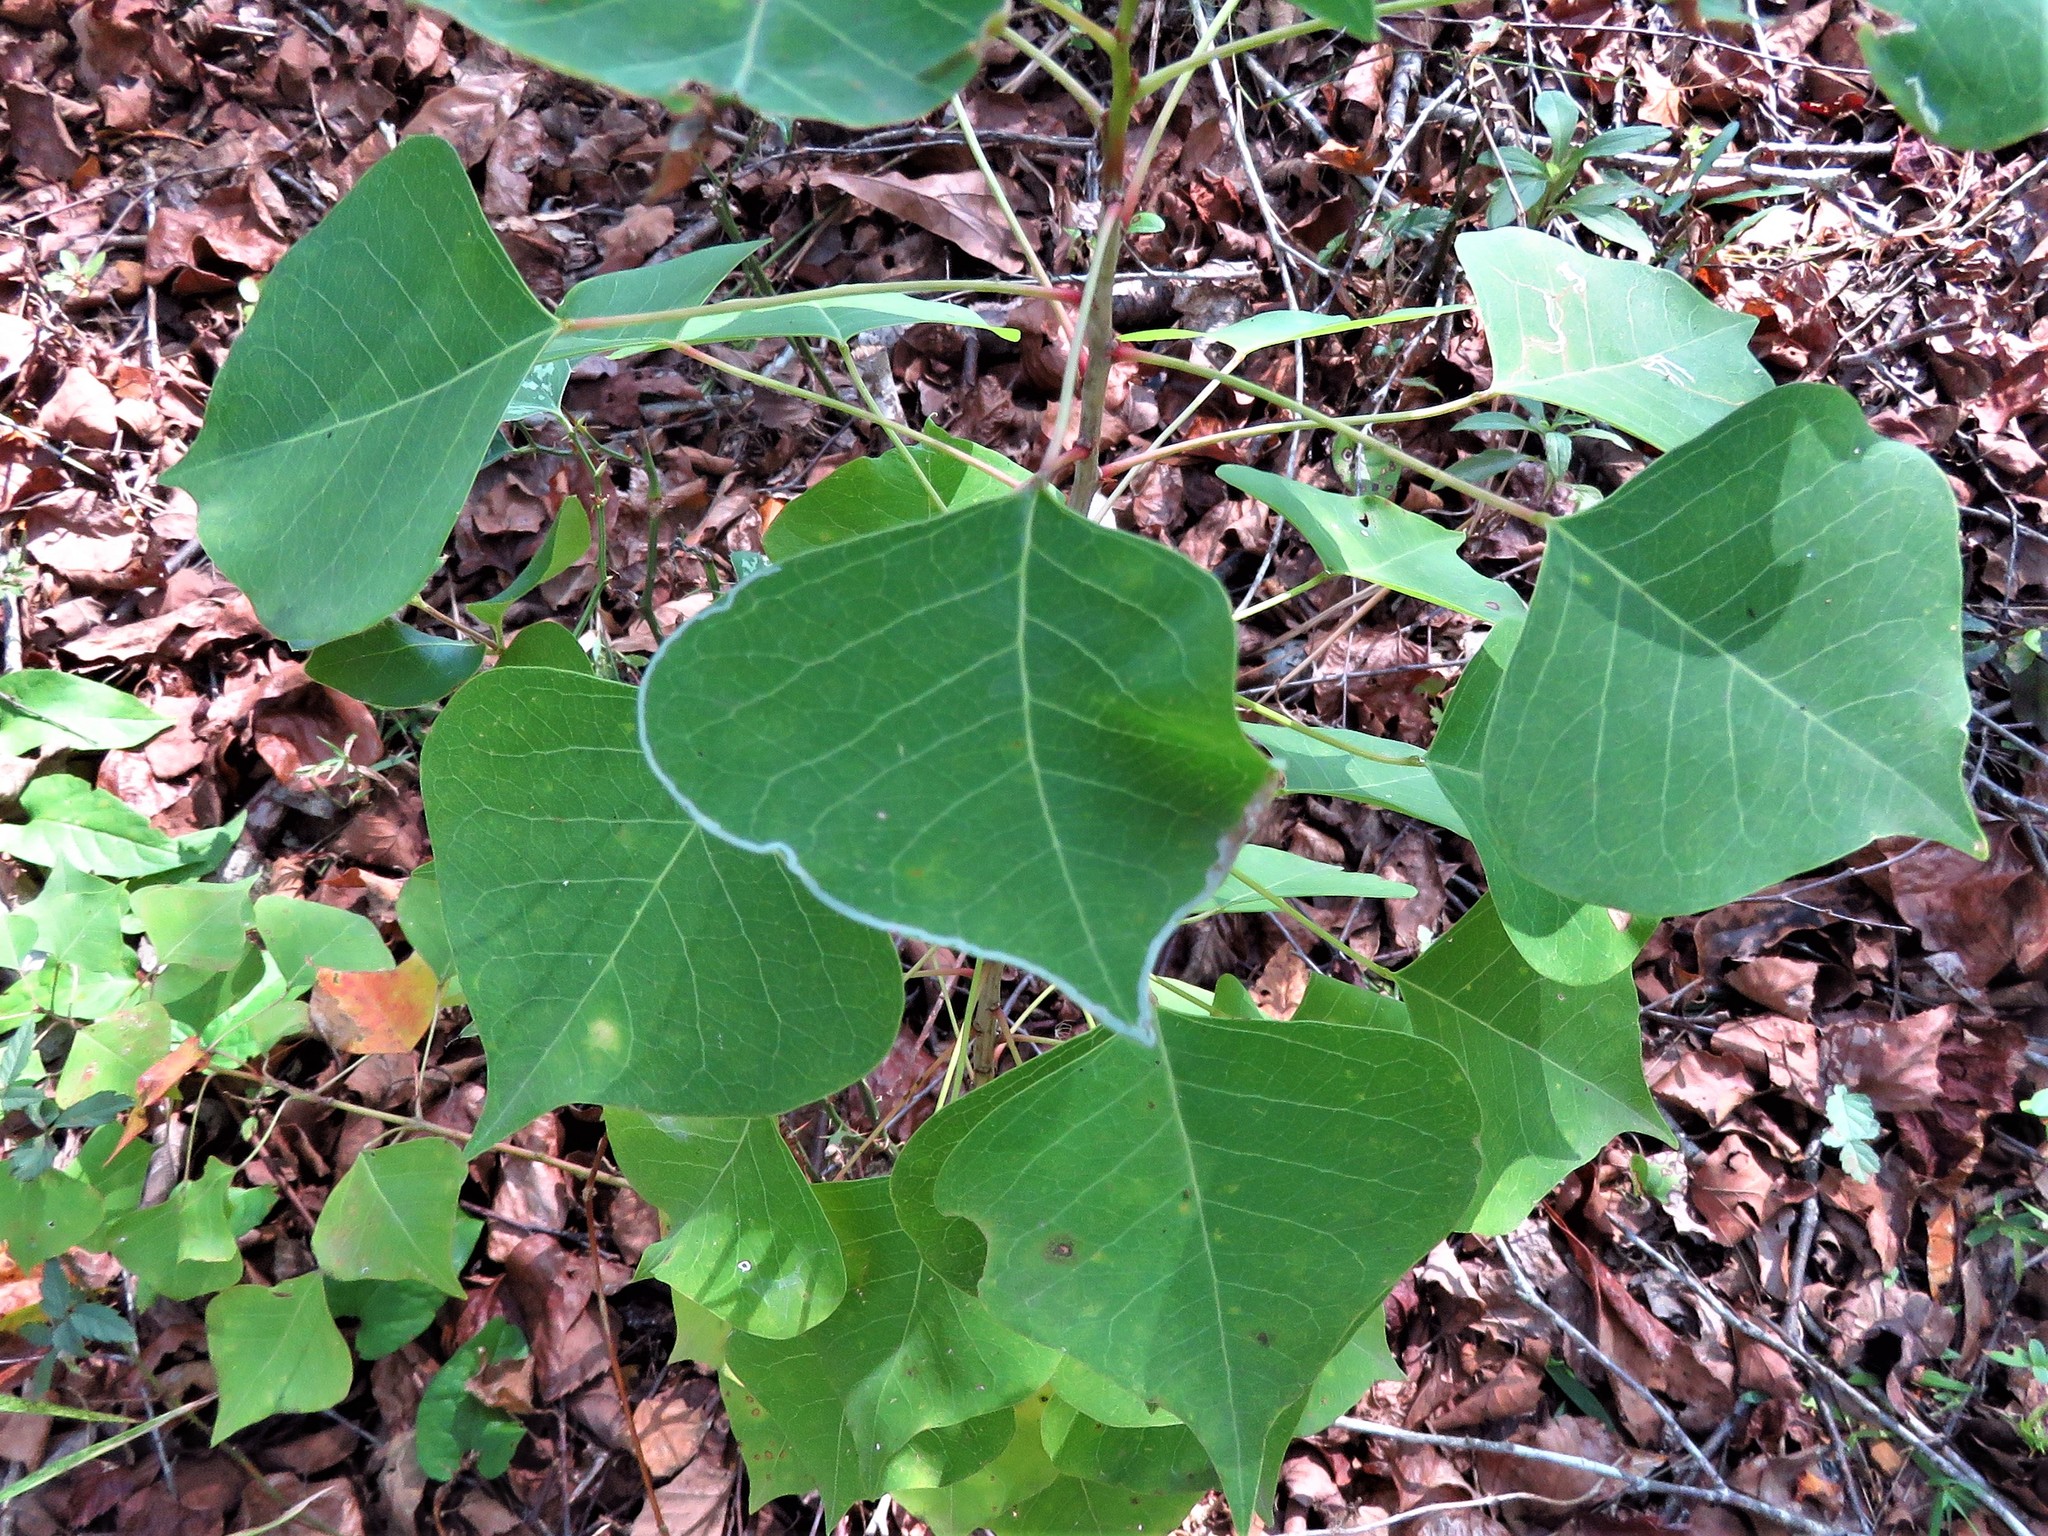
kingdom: Animalia
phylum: Arthropoda
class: Insecta
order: Lepidoptera
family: Gracillariidae
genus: Caloptilia
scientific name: Caloptilia triadicae
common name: Tallow leaf roller
